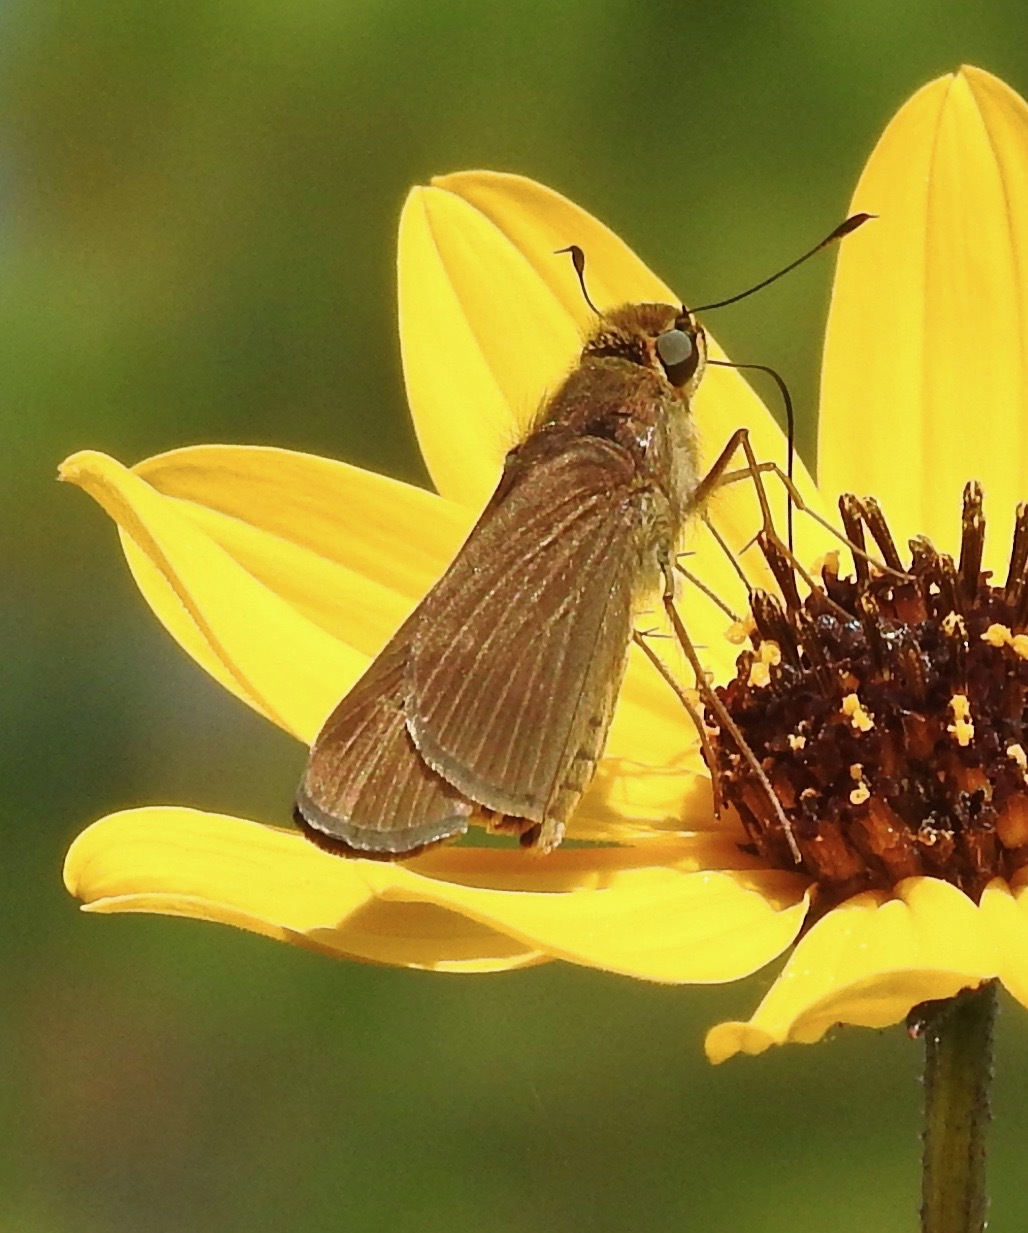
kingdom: Animalia
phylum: Arthropoda
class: Insecta
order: Lepidoptera
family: Hesperiidae
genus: Panoquina
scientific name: Panoquina ocola
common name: Ocola skipper
